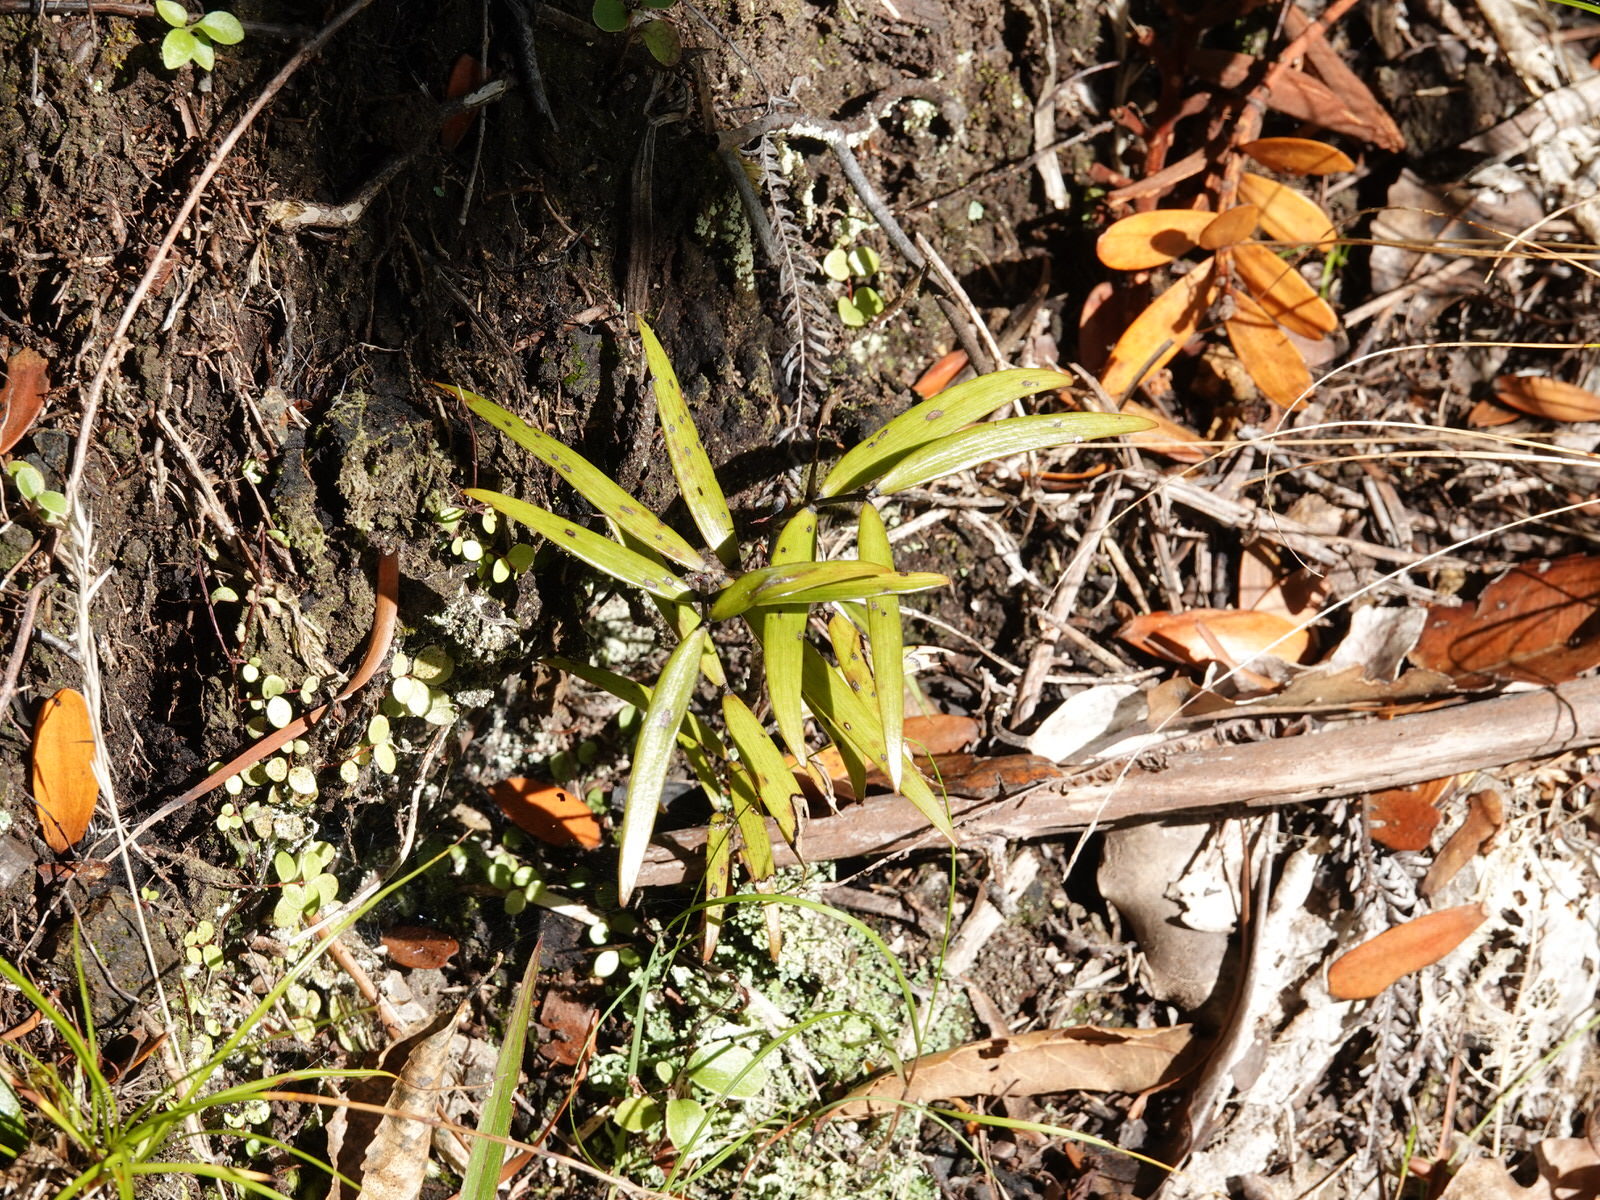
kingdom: Plantae
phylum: Tracheophyta
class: Pinopsida
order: Pinales
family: Araucariaceae
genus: Agathis
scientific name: Agathis australis
